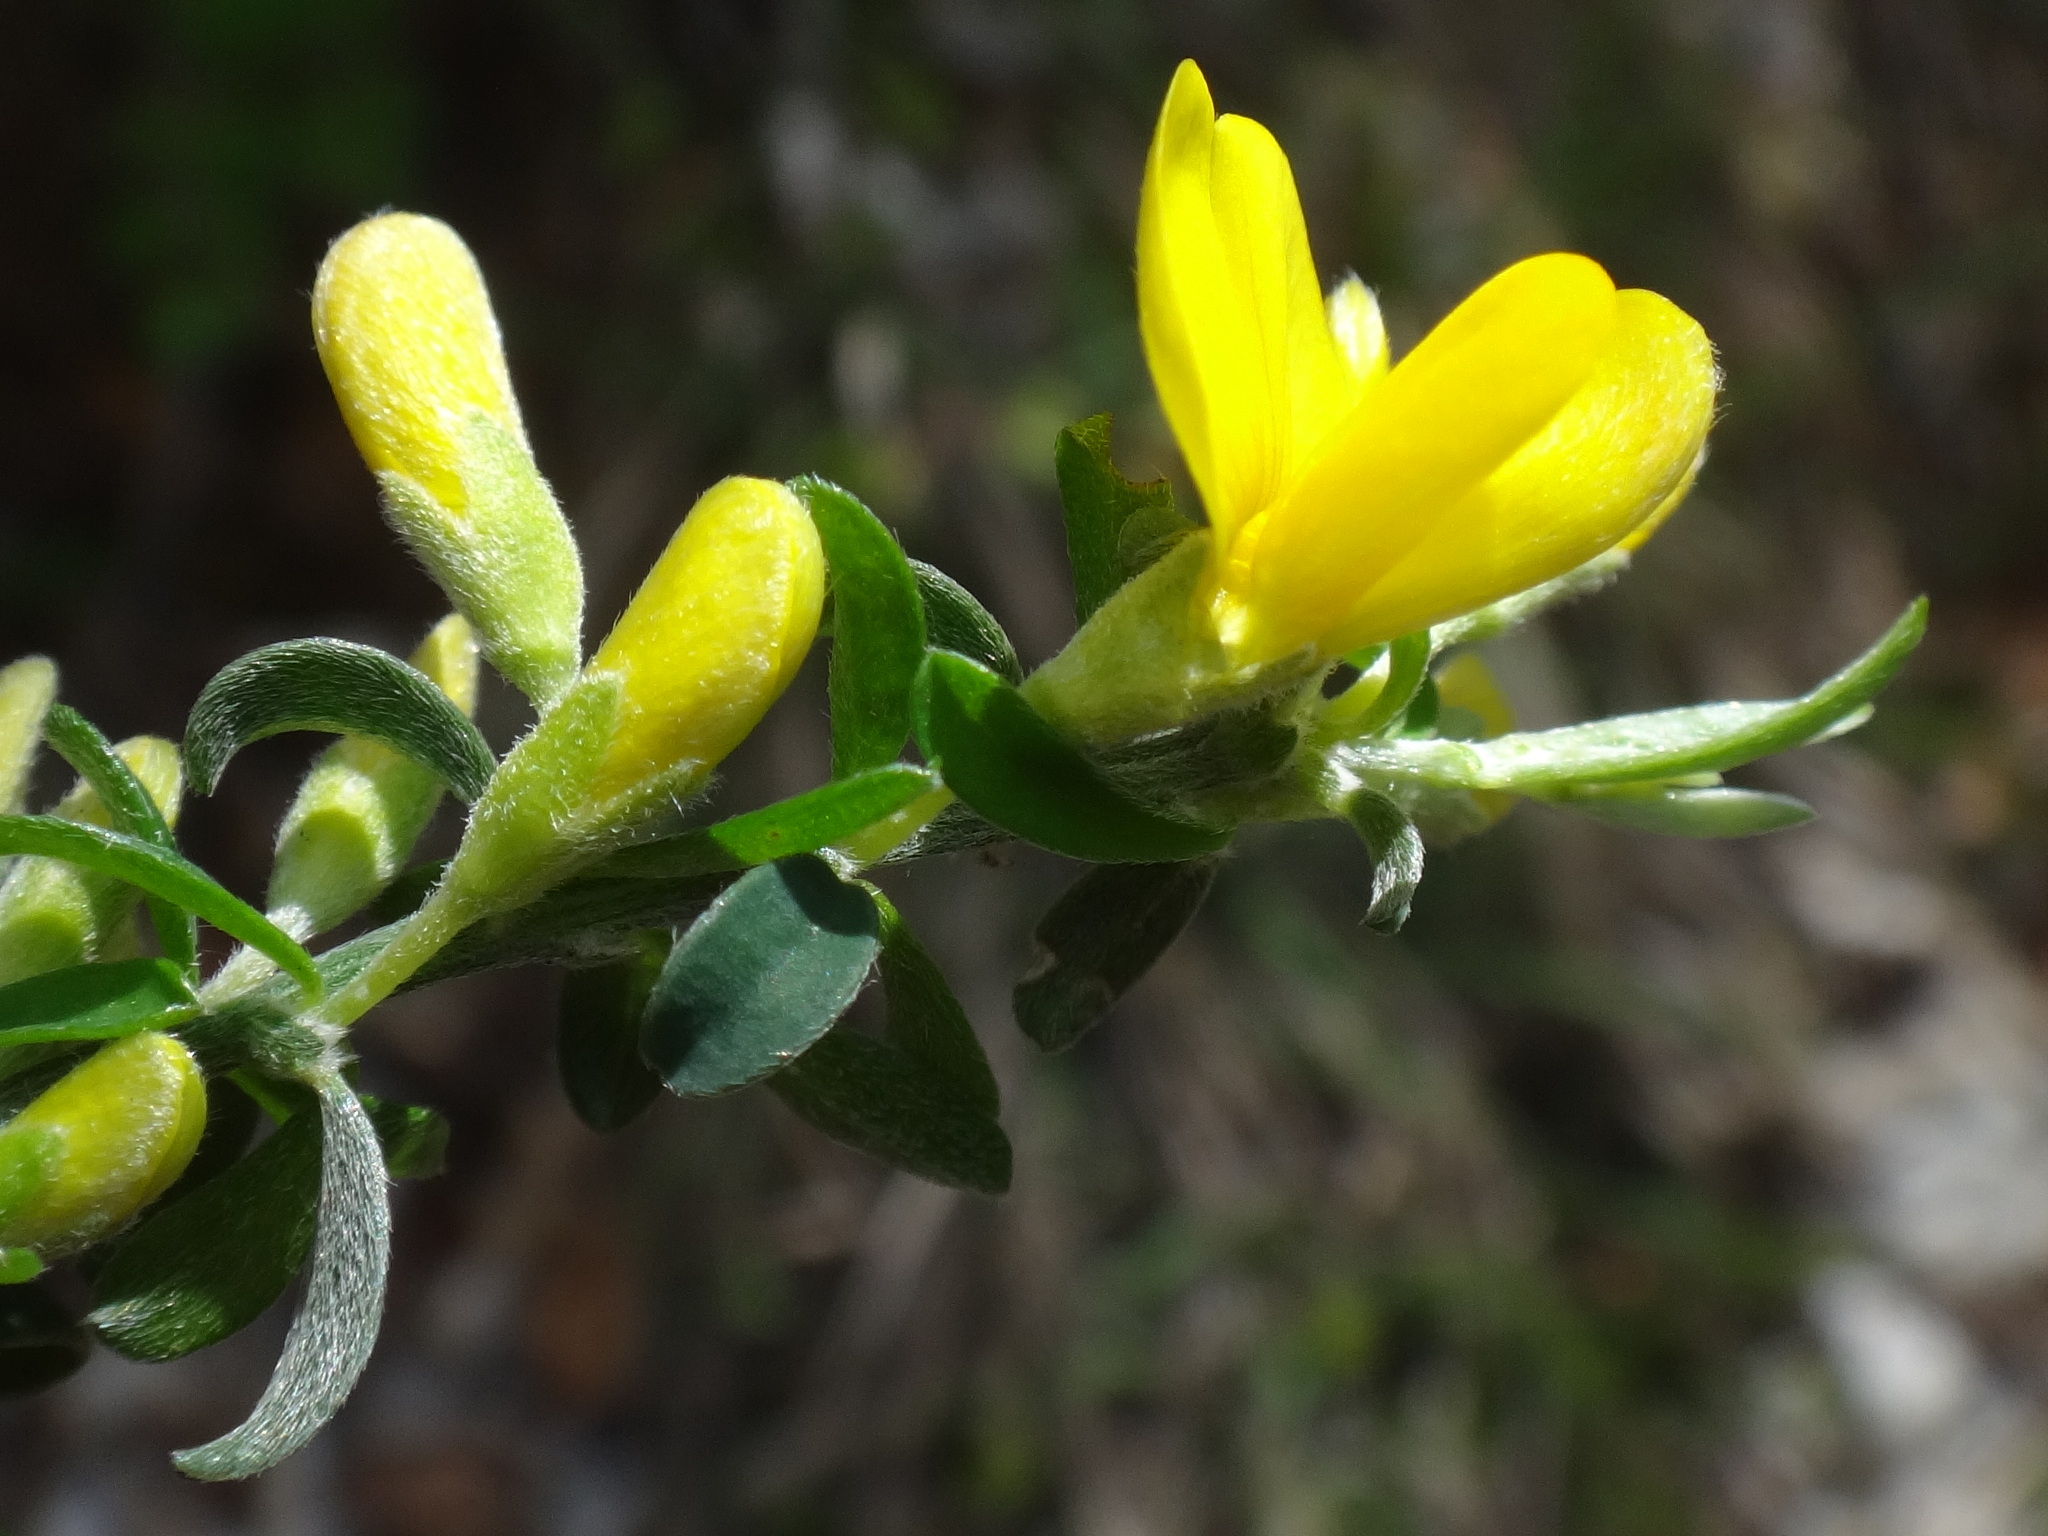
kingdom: Plantae
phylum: Tracheophyta
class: Magnoliopsida
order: Fabales
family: Fabaceae
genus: Genista
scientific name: Genista pilosa
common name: Hairy greenweed
